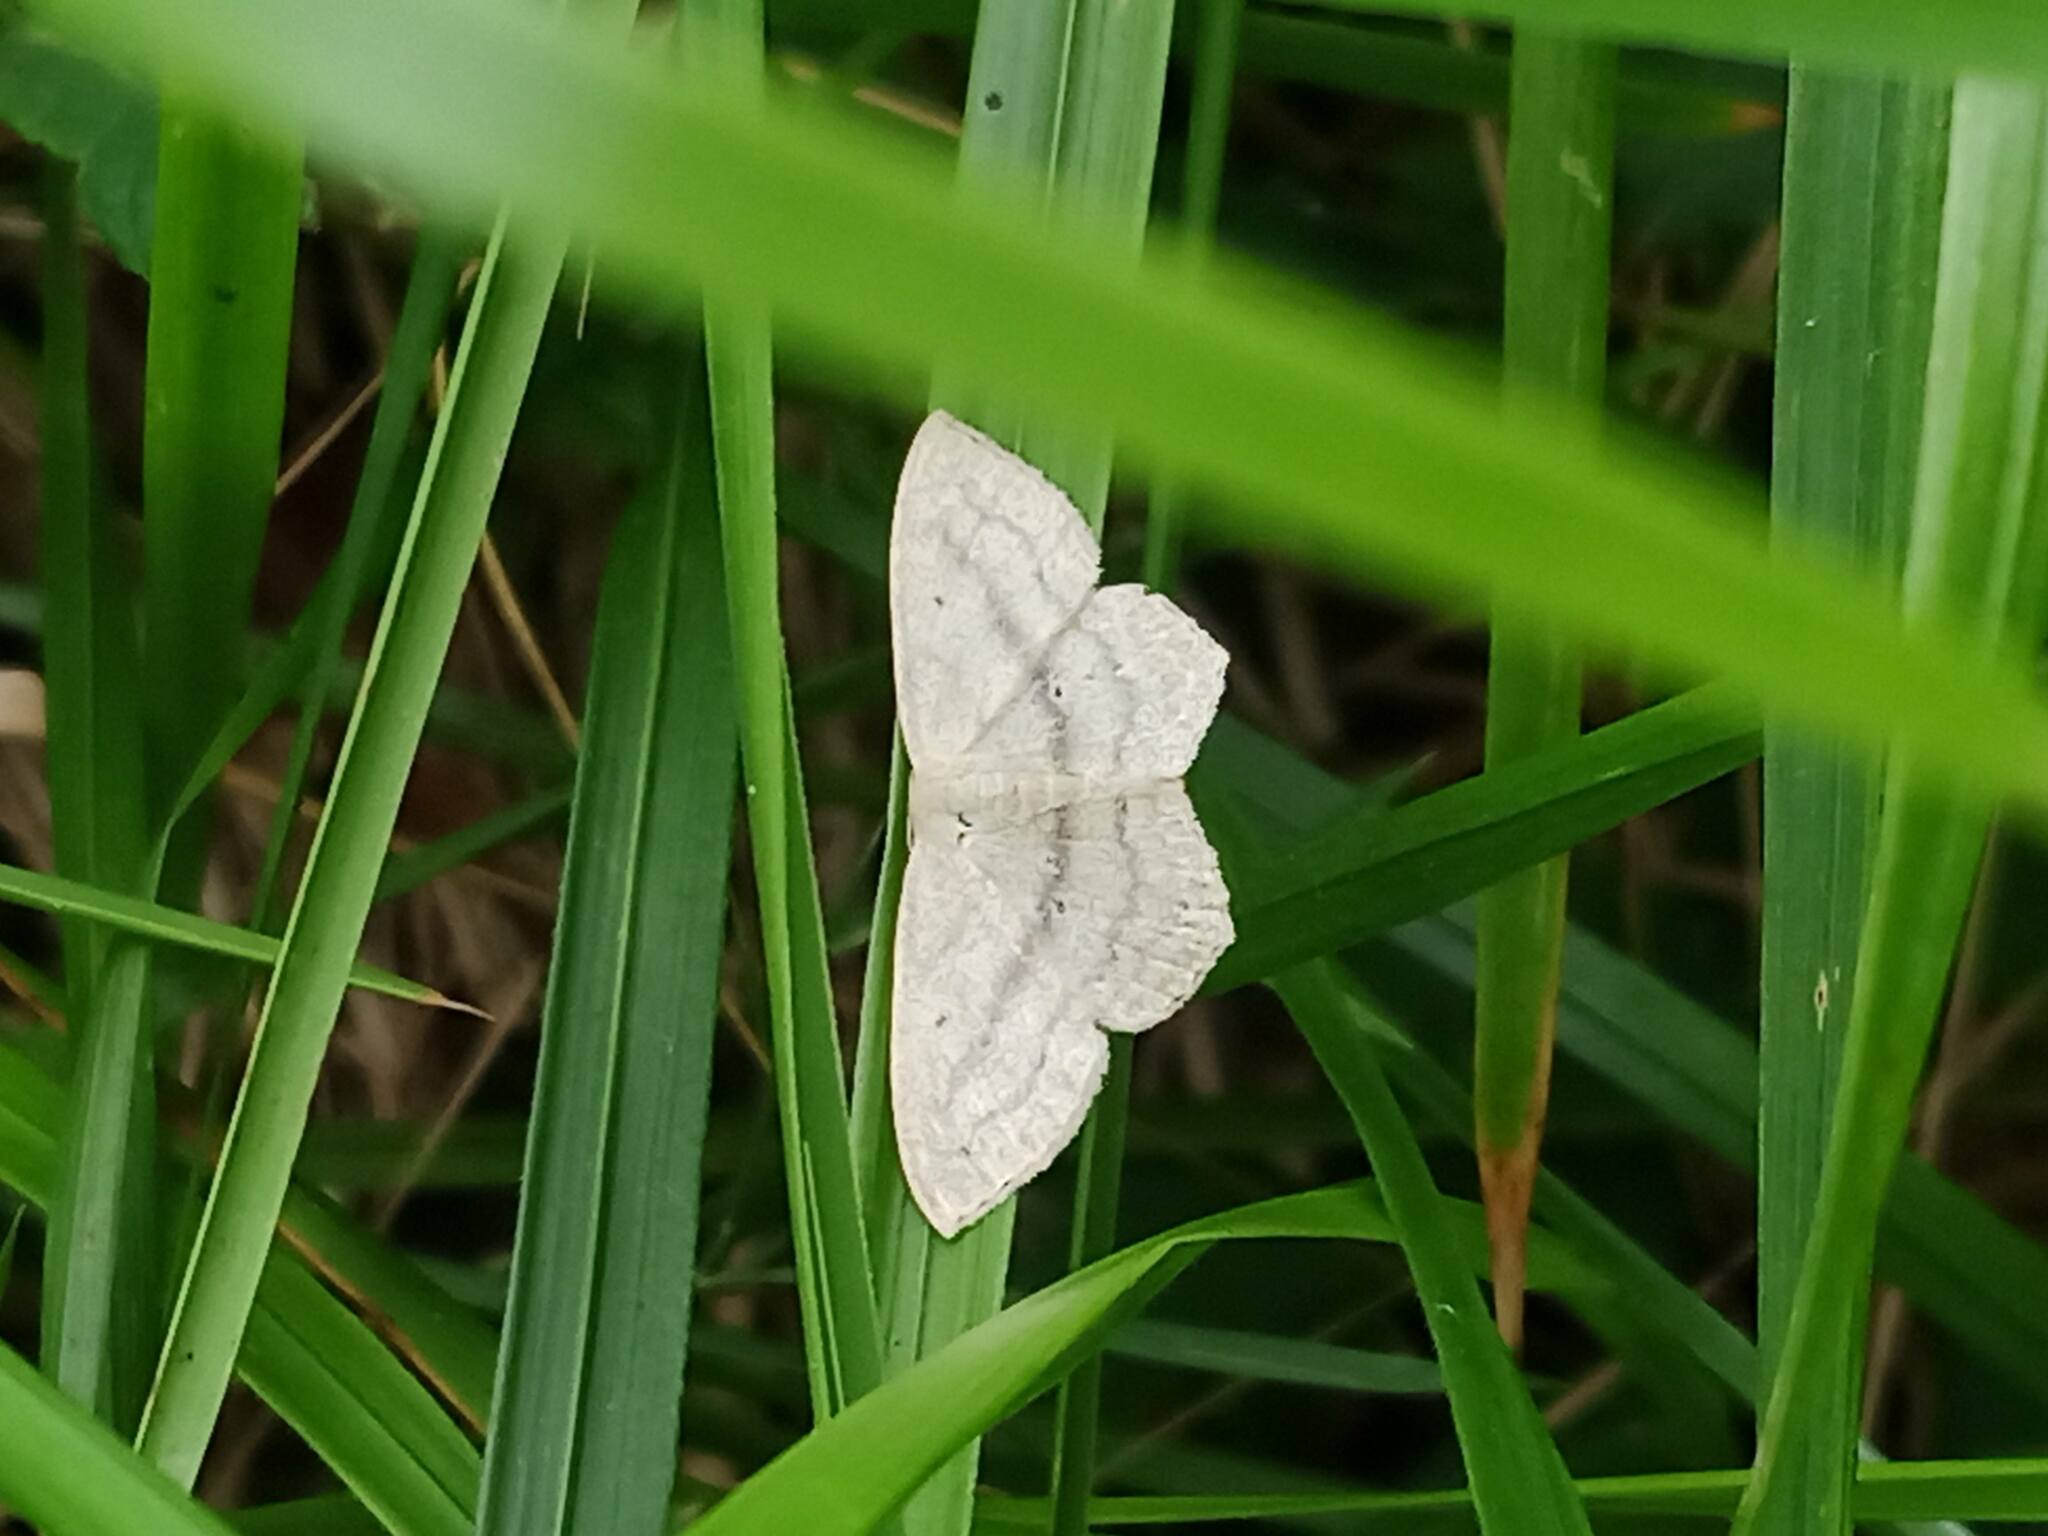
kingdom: Animalia
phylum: Arthropoda
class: Insecta
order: Lepidoptera
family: Geometridae
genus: Scopula
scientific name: Scopula nigropunctata
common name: Sub-angled wave
